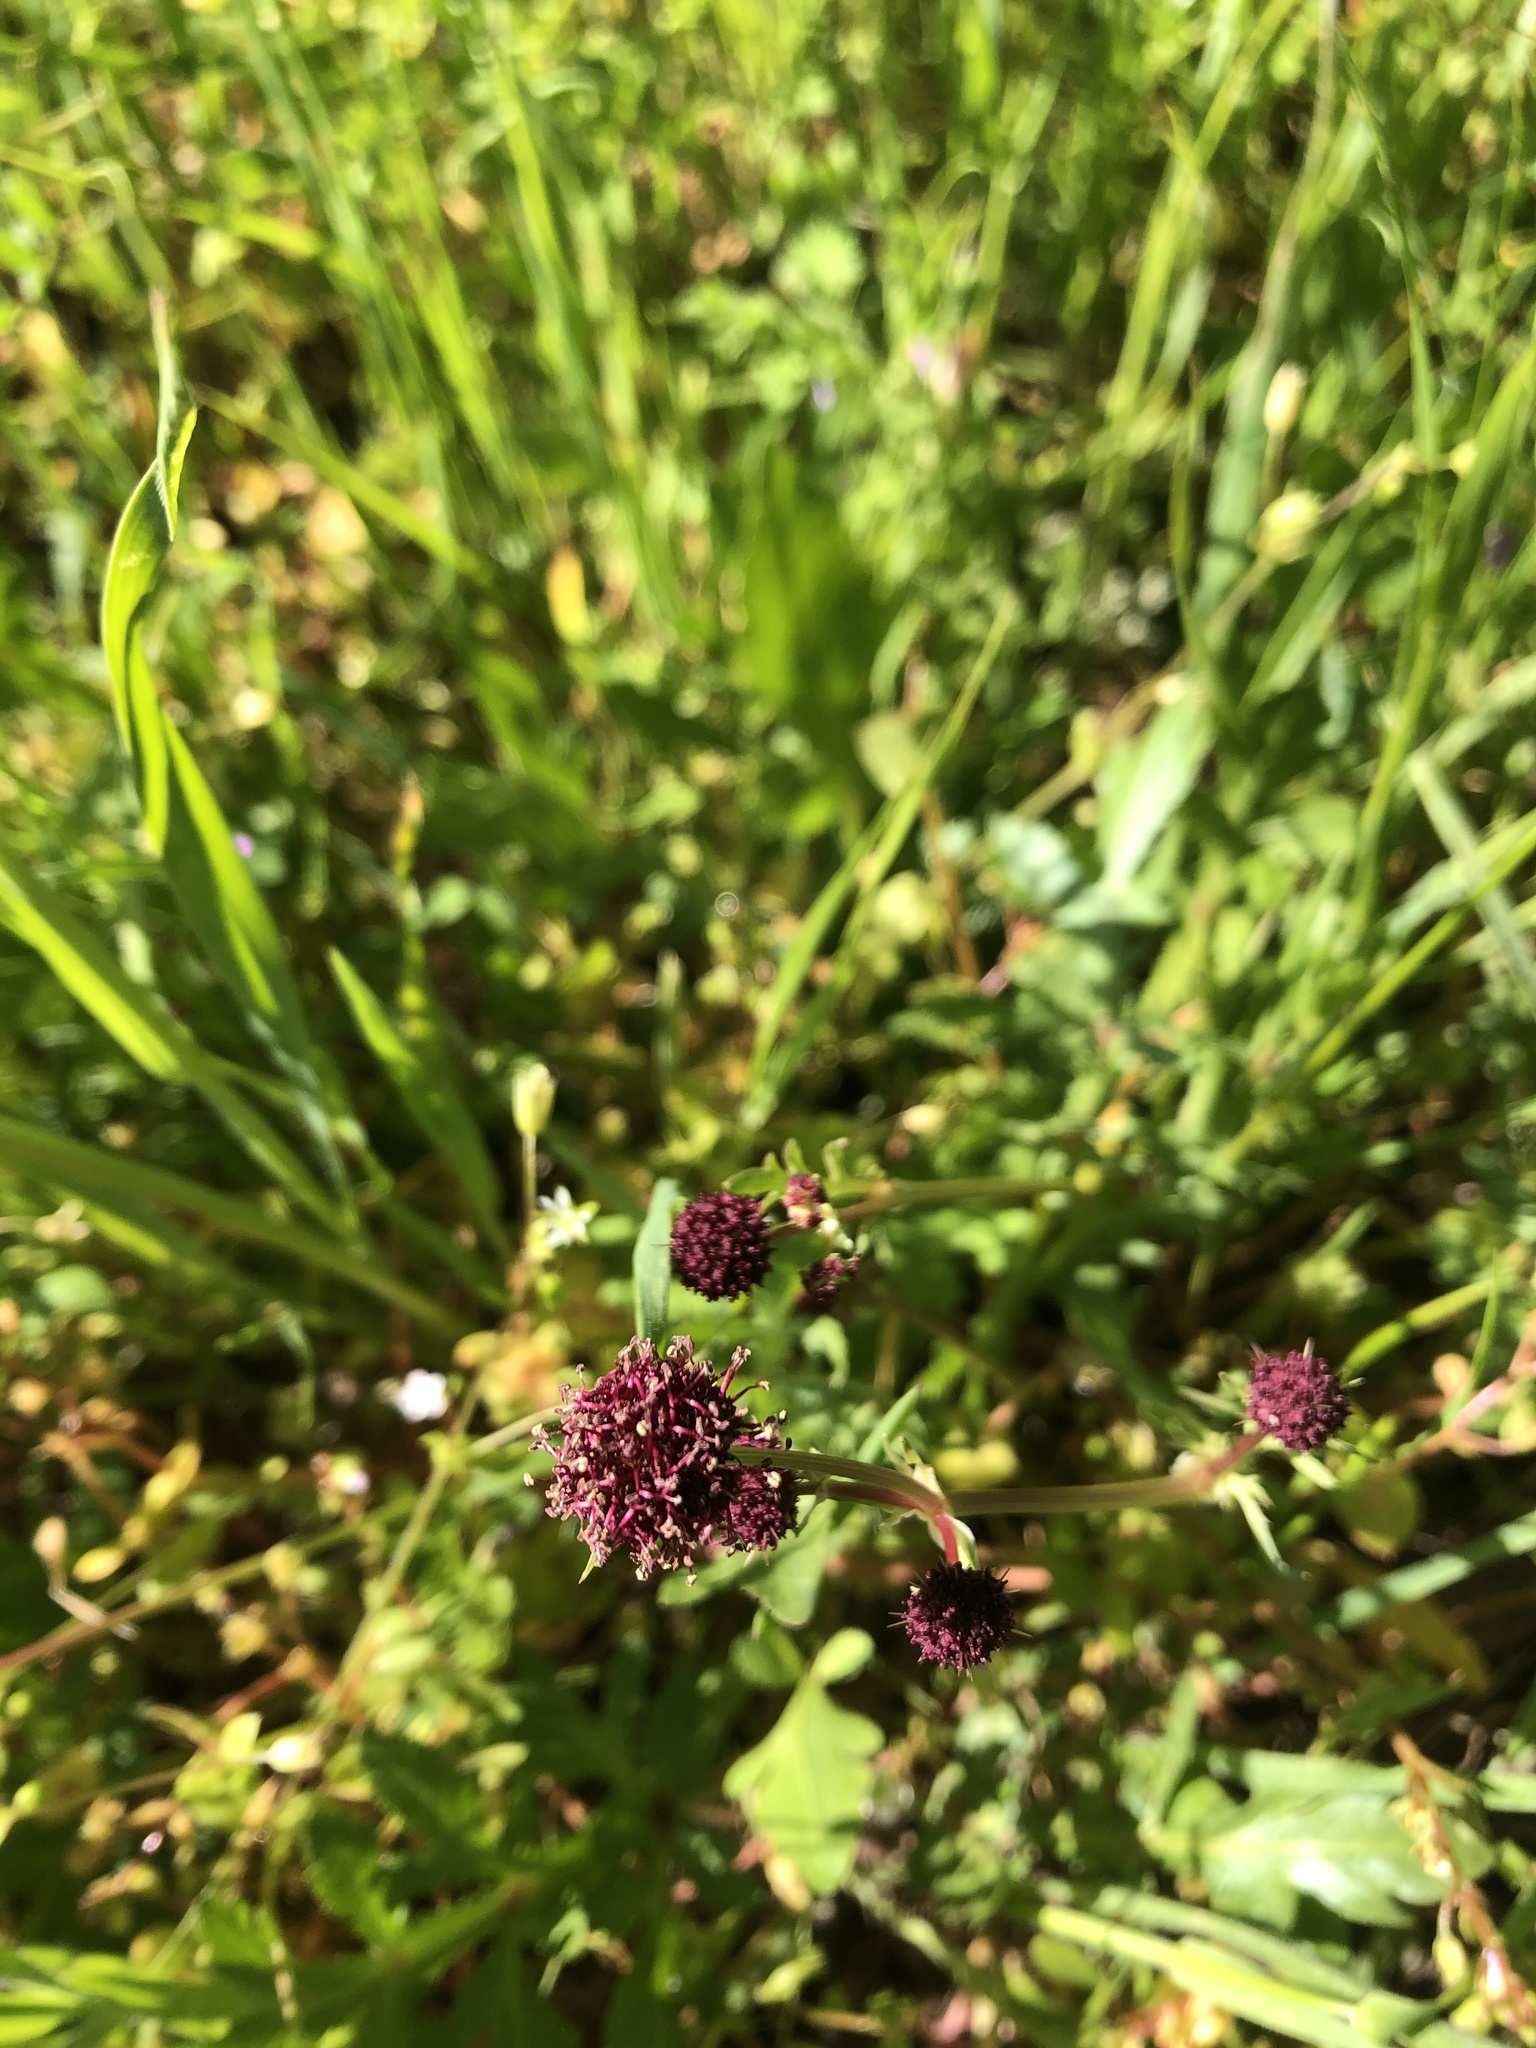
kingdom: Plantae
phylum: Tracheophyta
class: Magnoliopsida
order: Apiales
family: Apiaceae
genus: Sanicula
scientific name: Sanicula bipinnatifida
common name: Shoe-buttons
